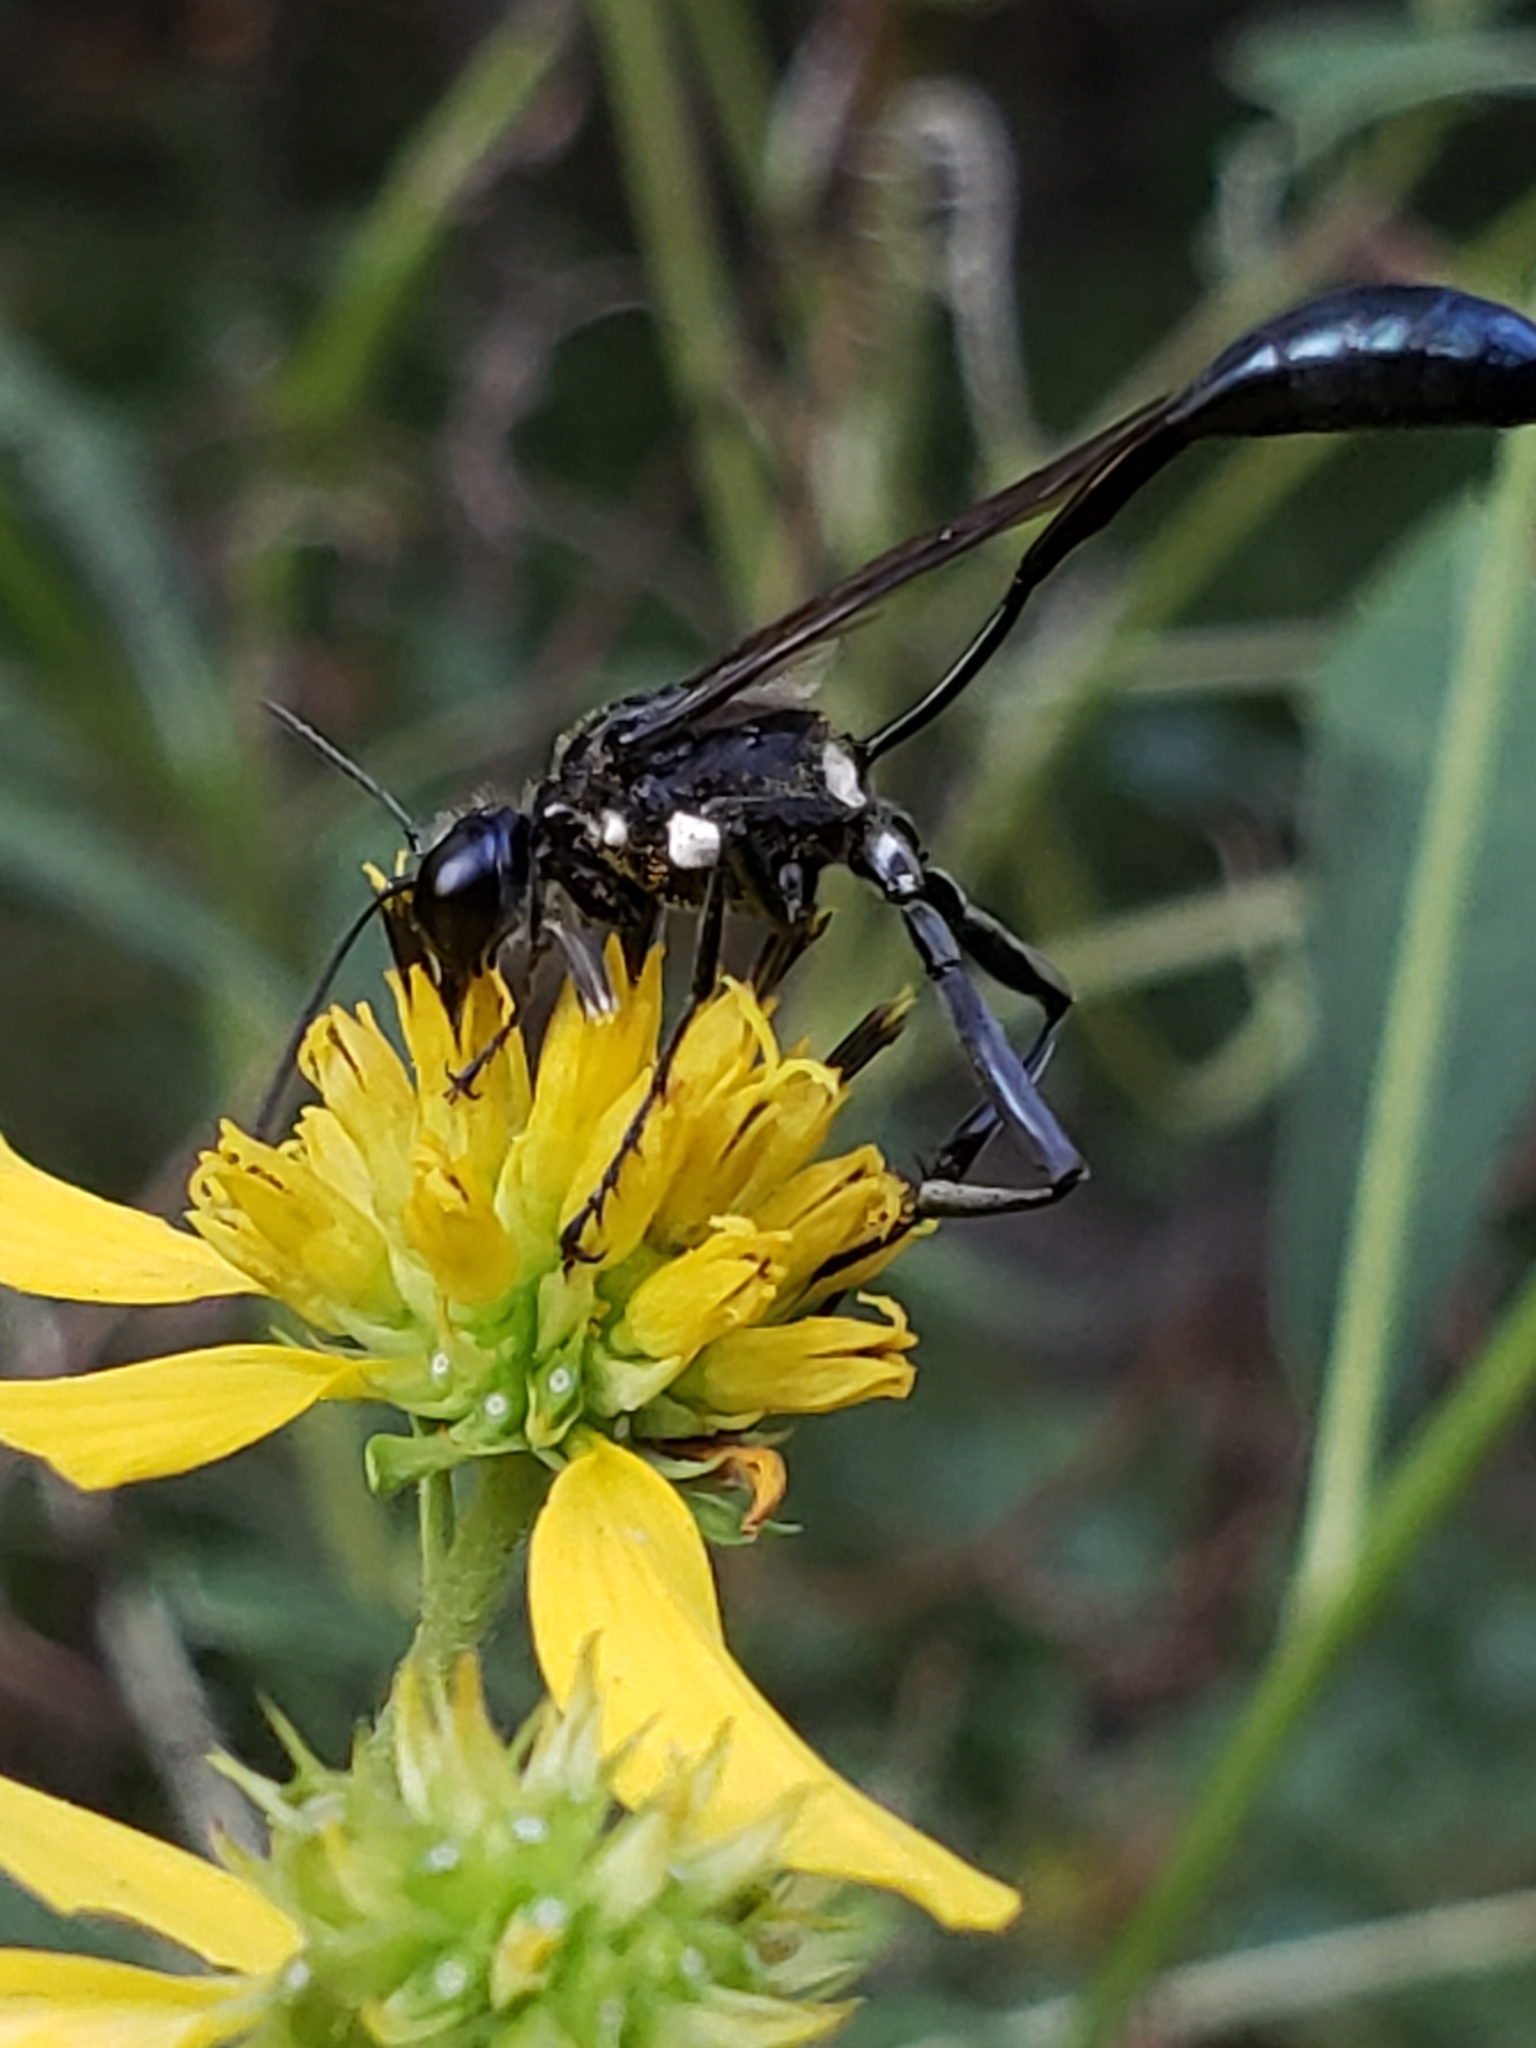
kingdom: Animalia
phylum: Arthropoda
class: Insecta
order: Hymenoptera
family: Sphecidae
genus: Eremnophila
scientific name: Eremnophila aureonotata
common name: Gold-marked thread-waisted wasp
